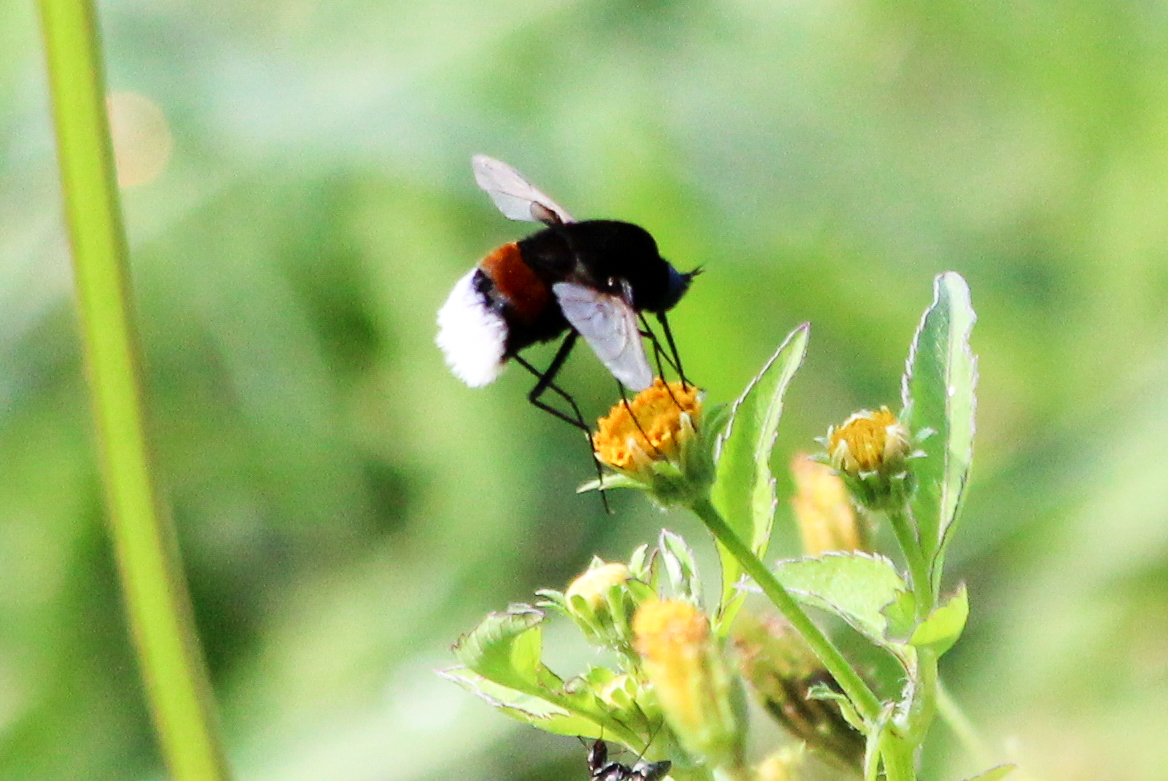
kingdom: Animalia
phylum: Arthropoda
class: Insecta
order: Diptera
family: Bombyliidae
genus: Bombomyia
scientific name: Bombomyia bombiformis
